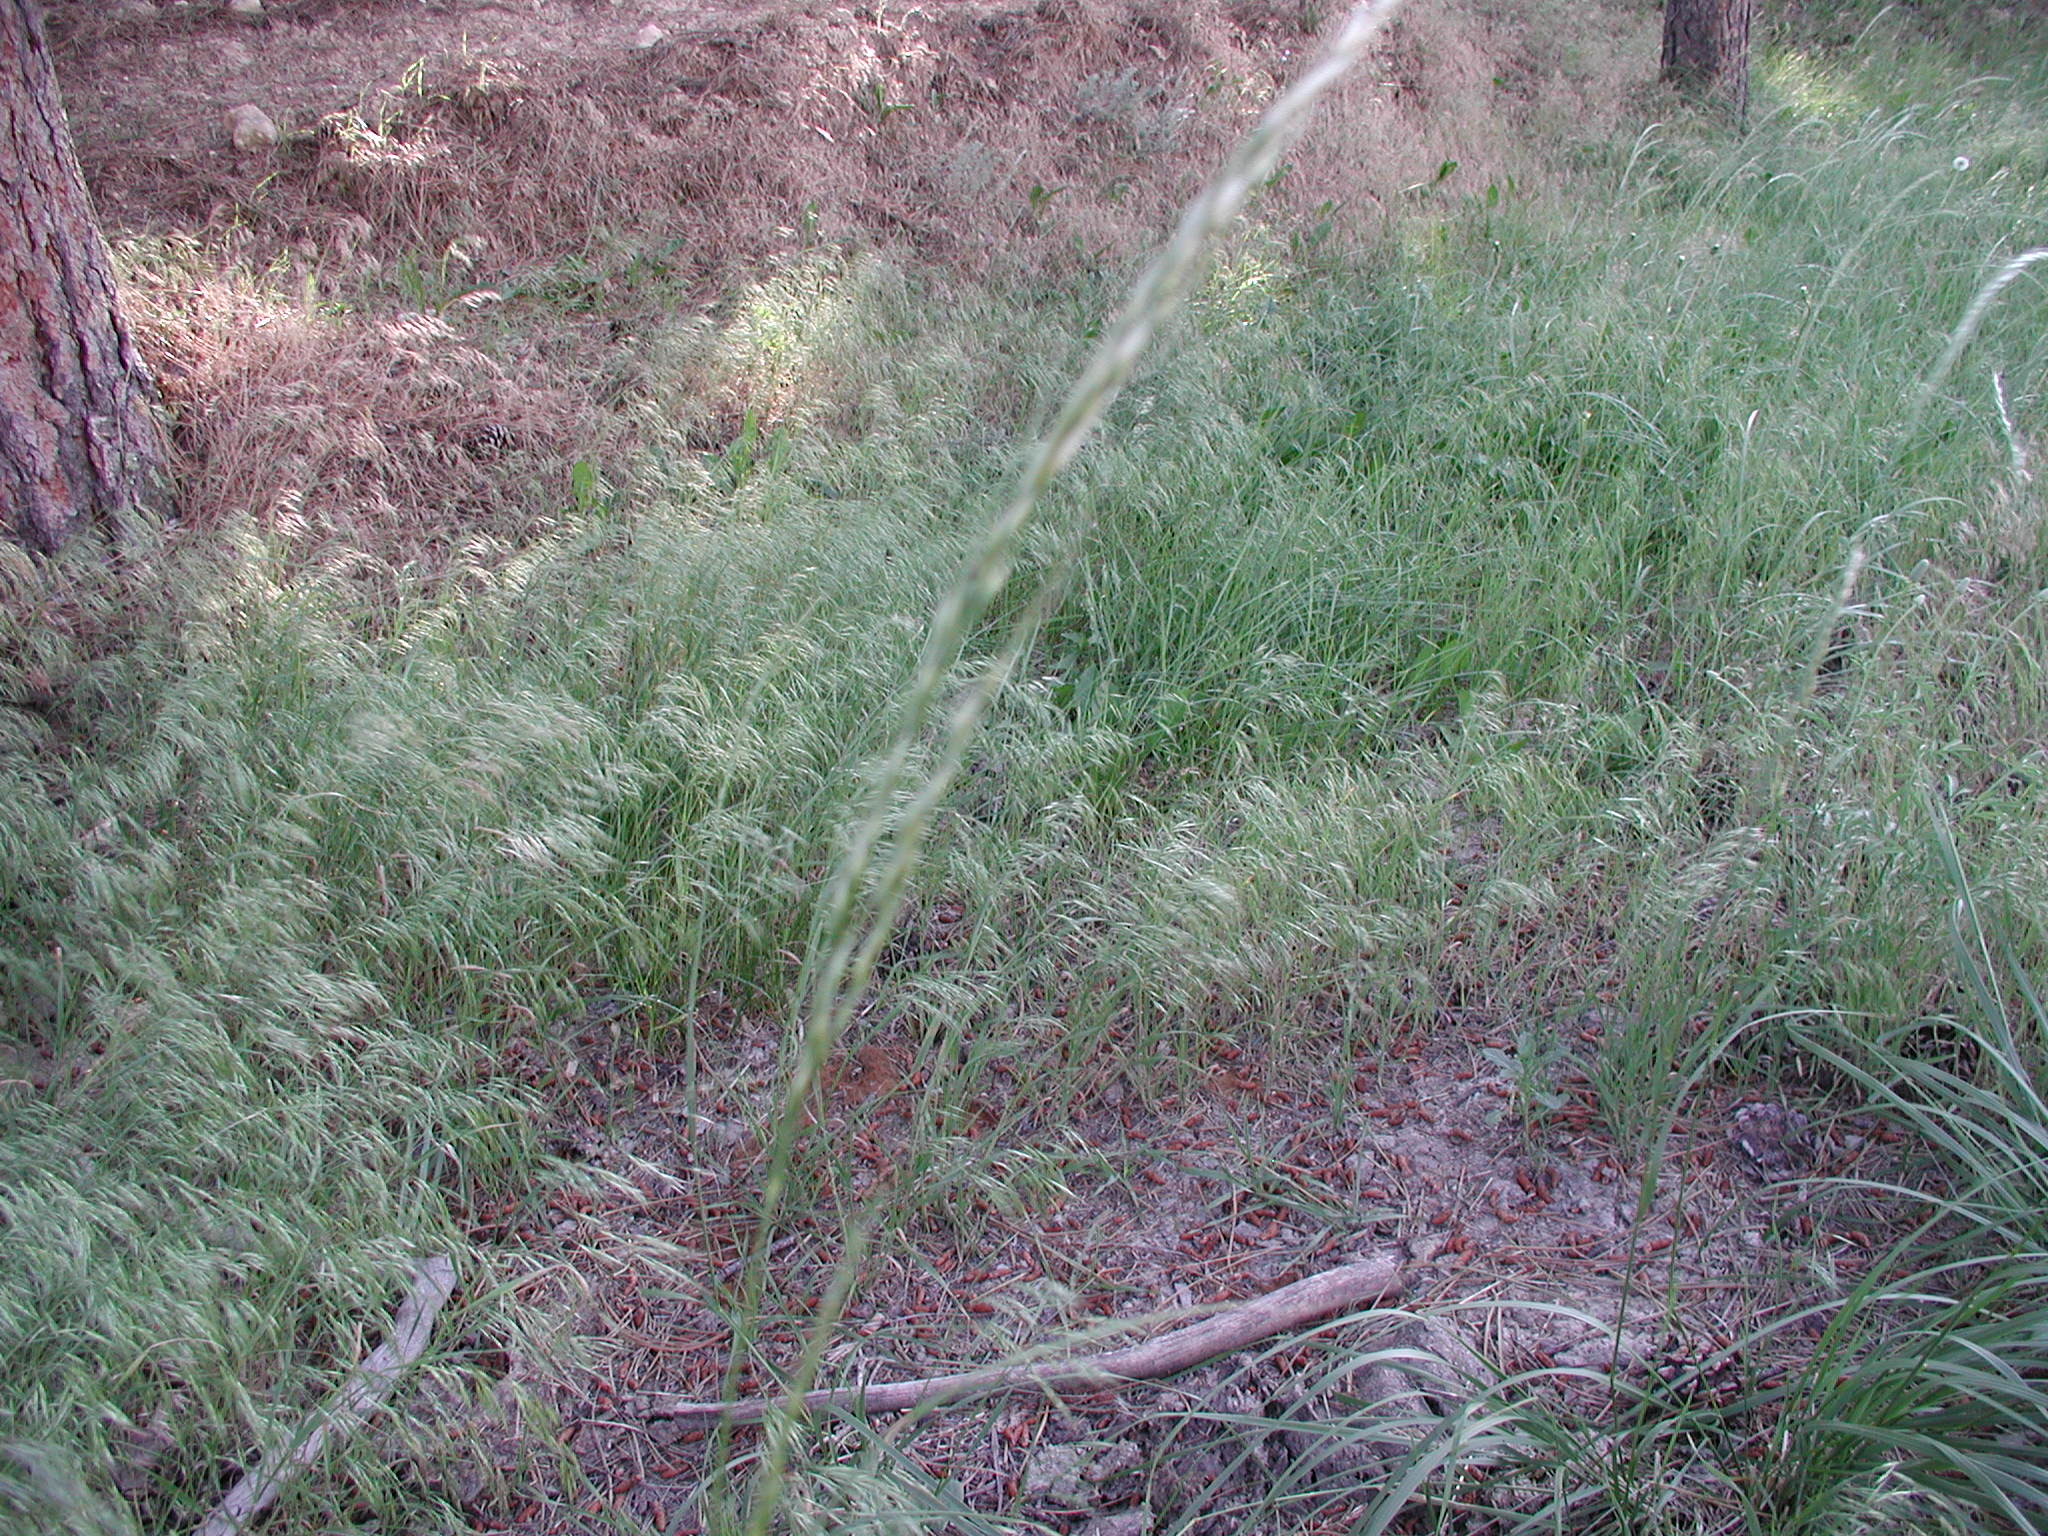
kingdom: Plantae
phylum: Tracheophyta
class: Liliopsida
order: Poales
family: Poaceae
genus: Bromus
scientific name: Bromus tectorum
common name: Cheatgrass
